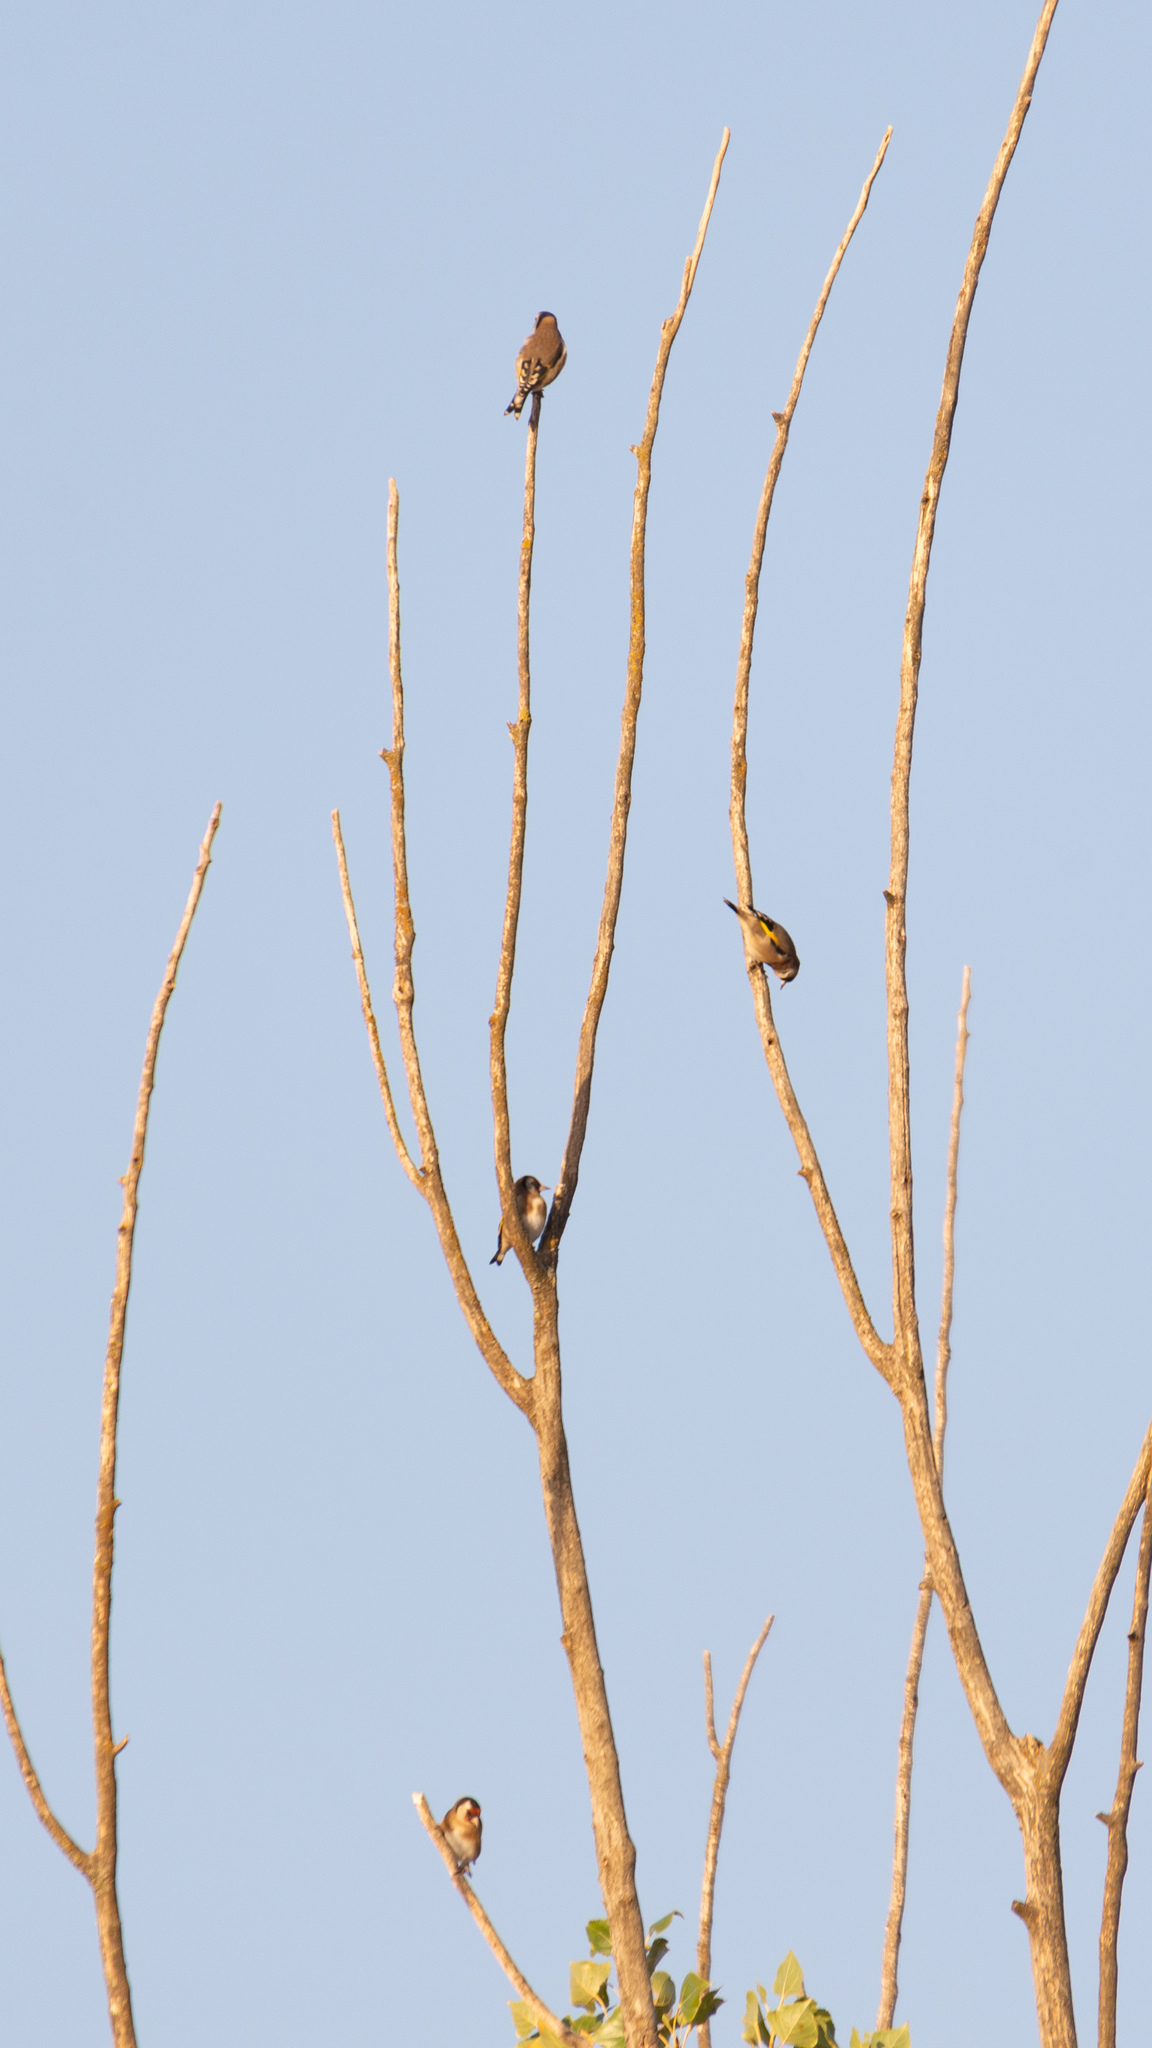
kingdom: Animalia
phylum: Chordata
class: Aves
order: Passeriformes
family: Fringillidae
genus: Carduelis
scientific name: Carduelis carduelis
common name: European goldfinch
